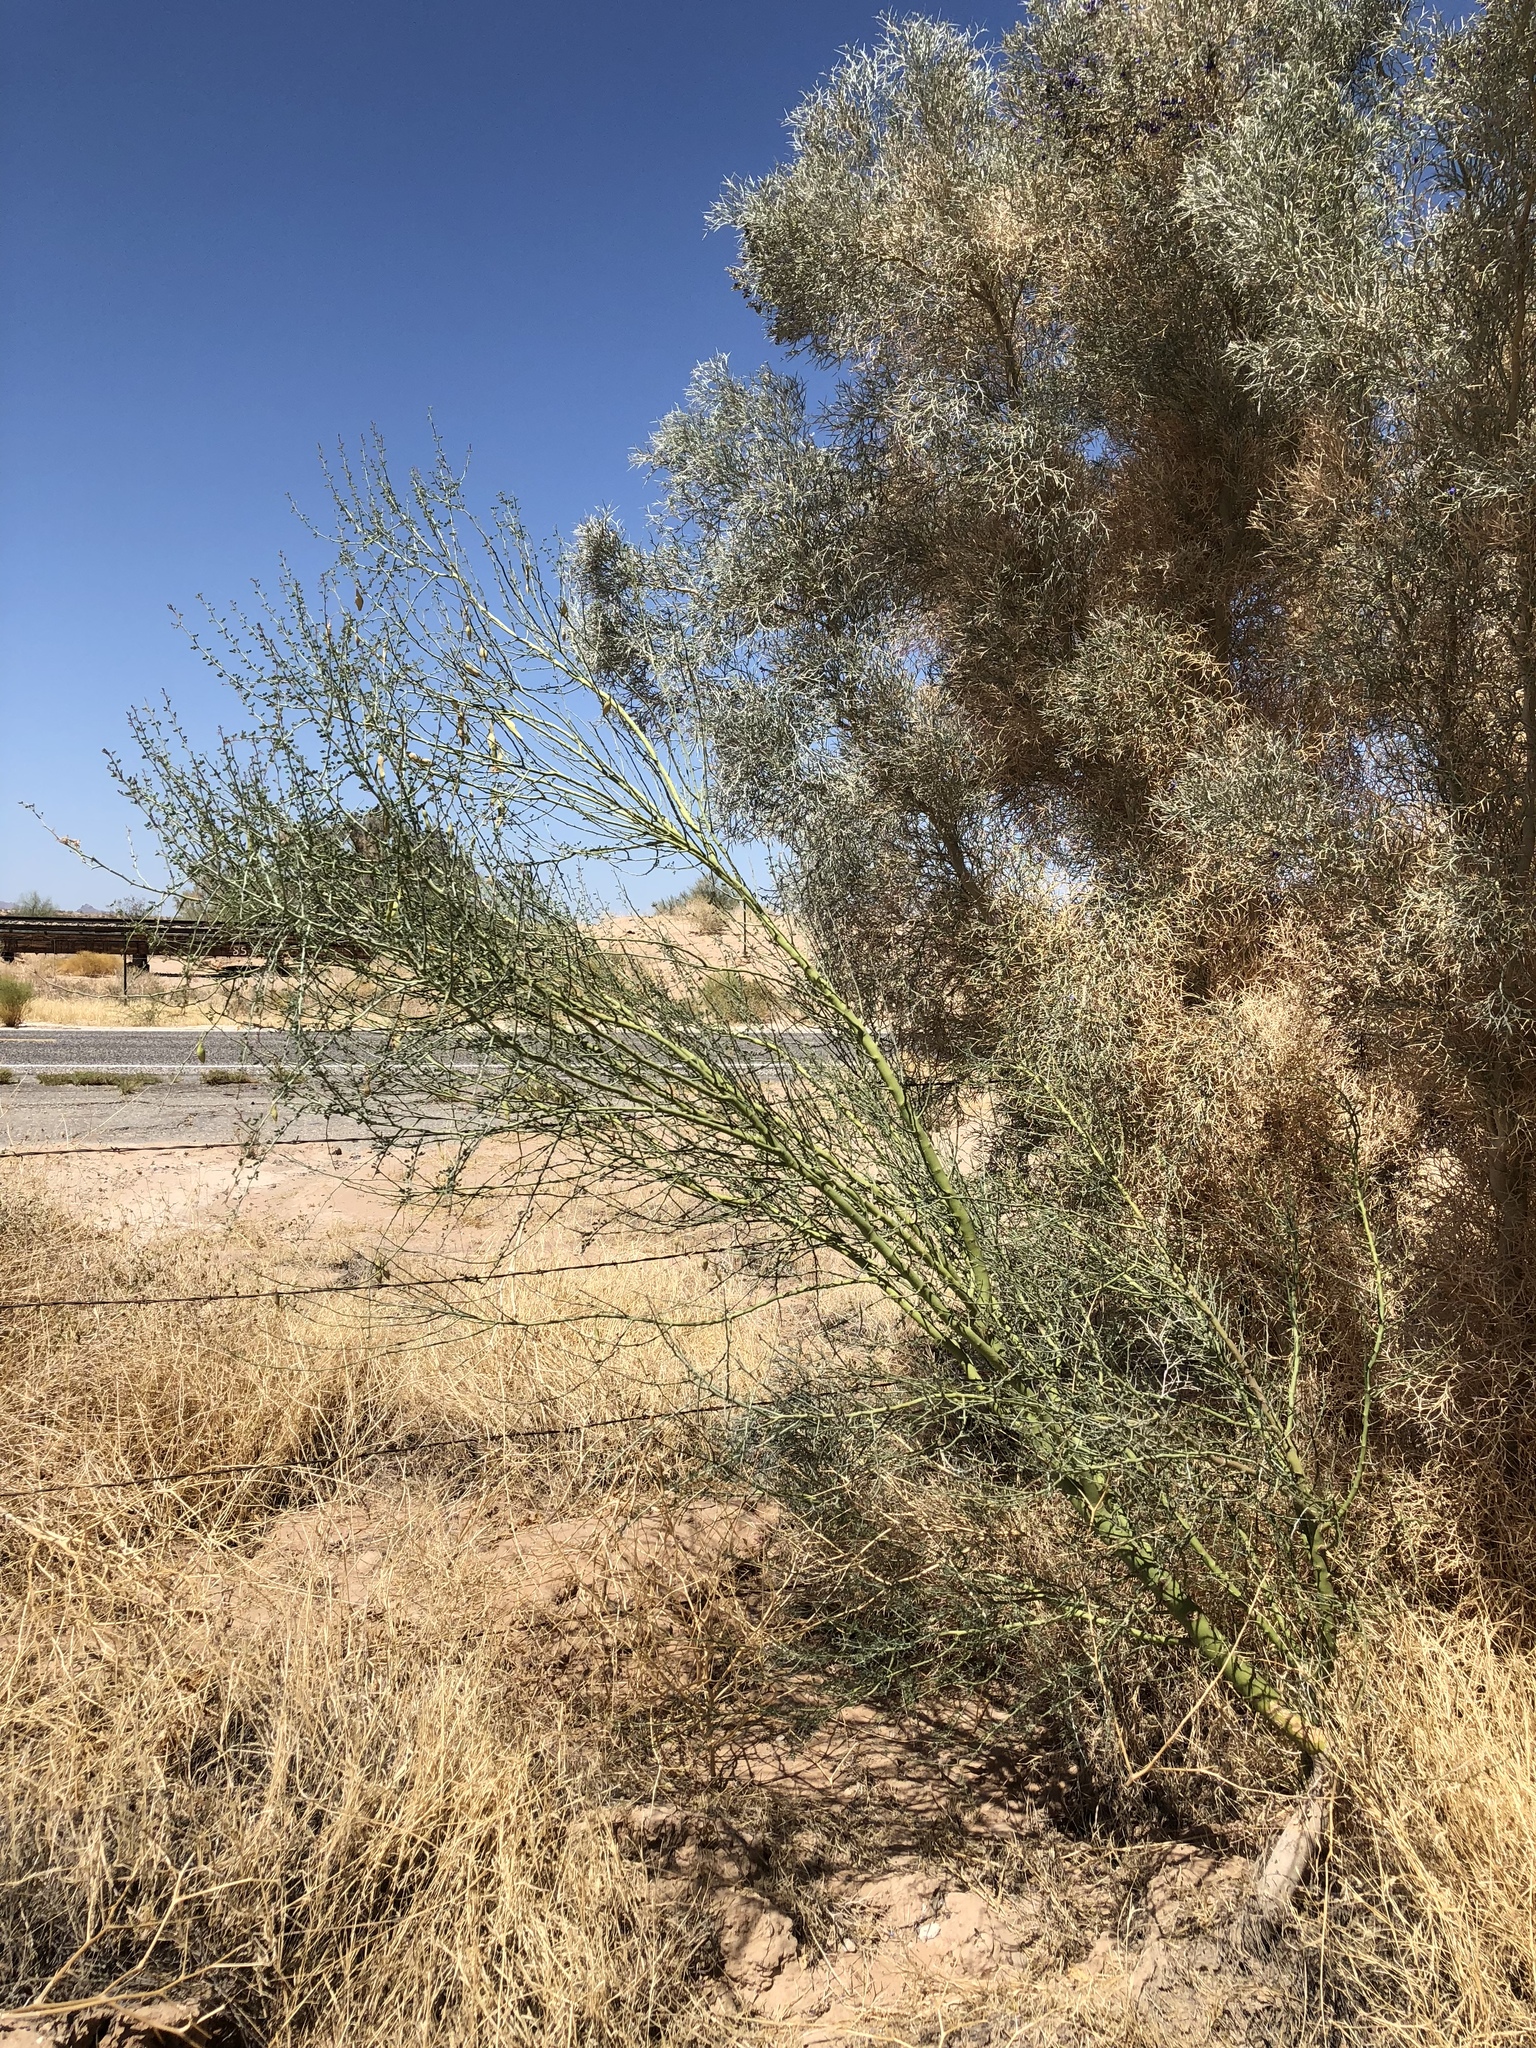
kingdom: Plantae
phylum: Tracheophyta
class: Magnoliopsida
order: Fabales
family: Fabaceae
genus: Parkinsonia
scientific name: Parkinsonia florida
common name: Blue paloverde
